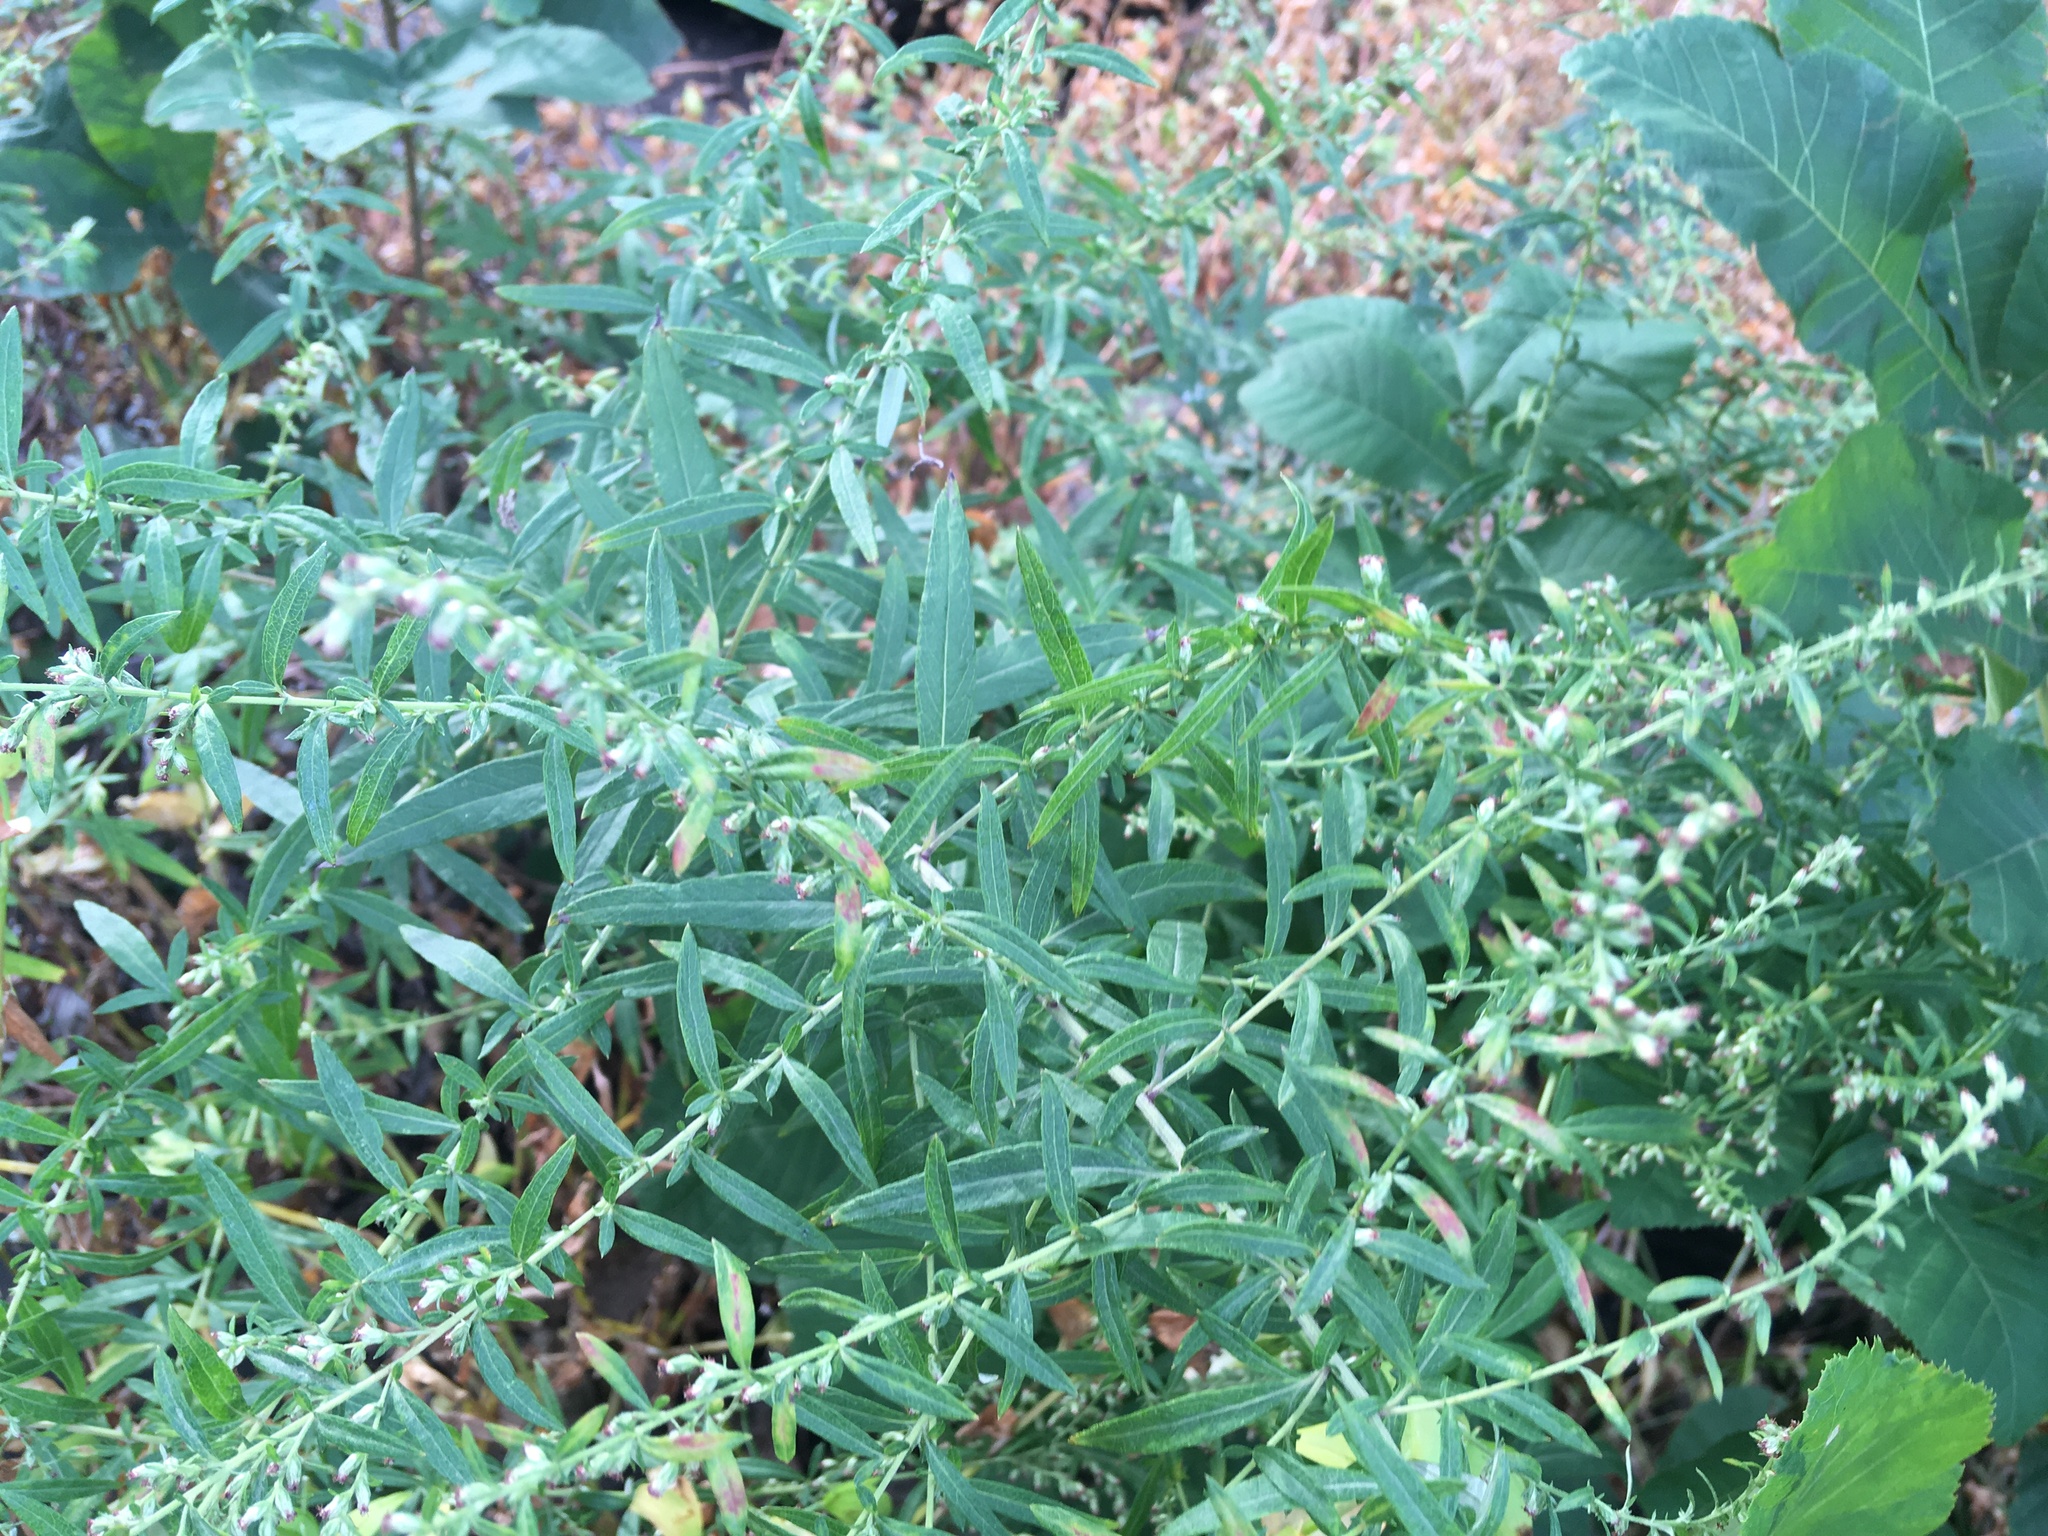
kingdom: Plantae
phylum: Tracheophyta
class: Magnoliopsida
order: Asterales
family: Asteraceae
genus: Artemisia
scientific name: Artemisia vulgaris
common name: Mugwort
